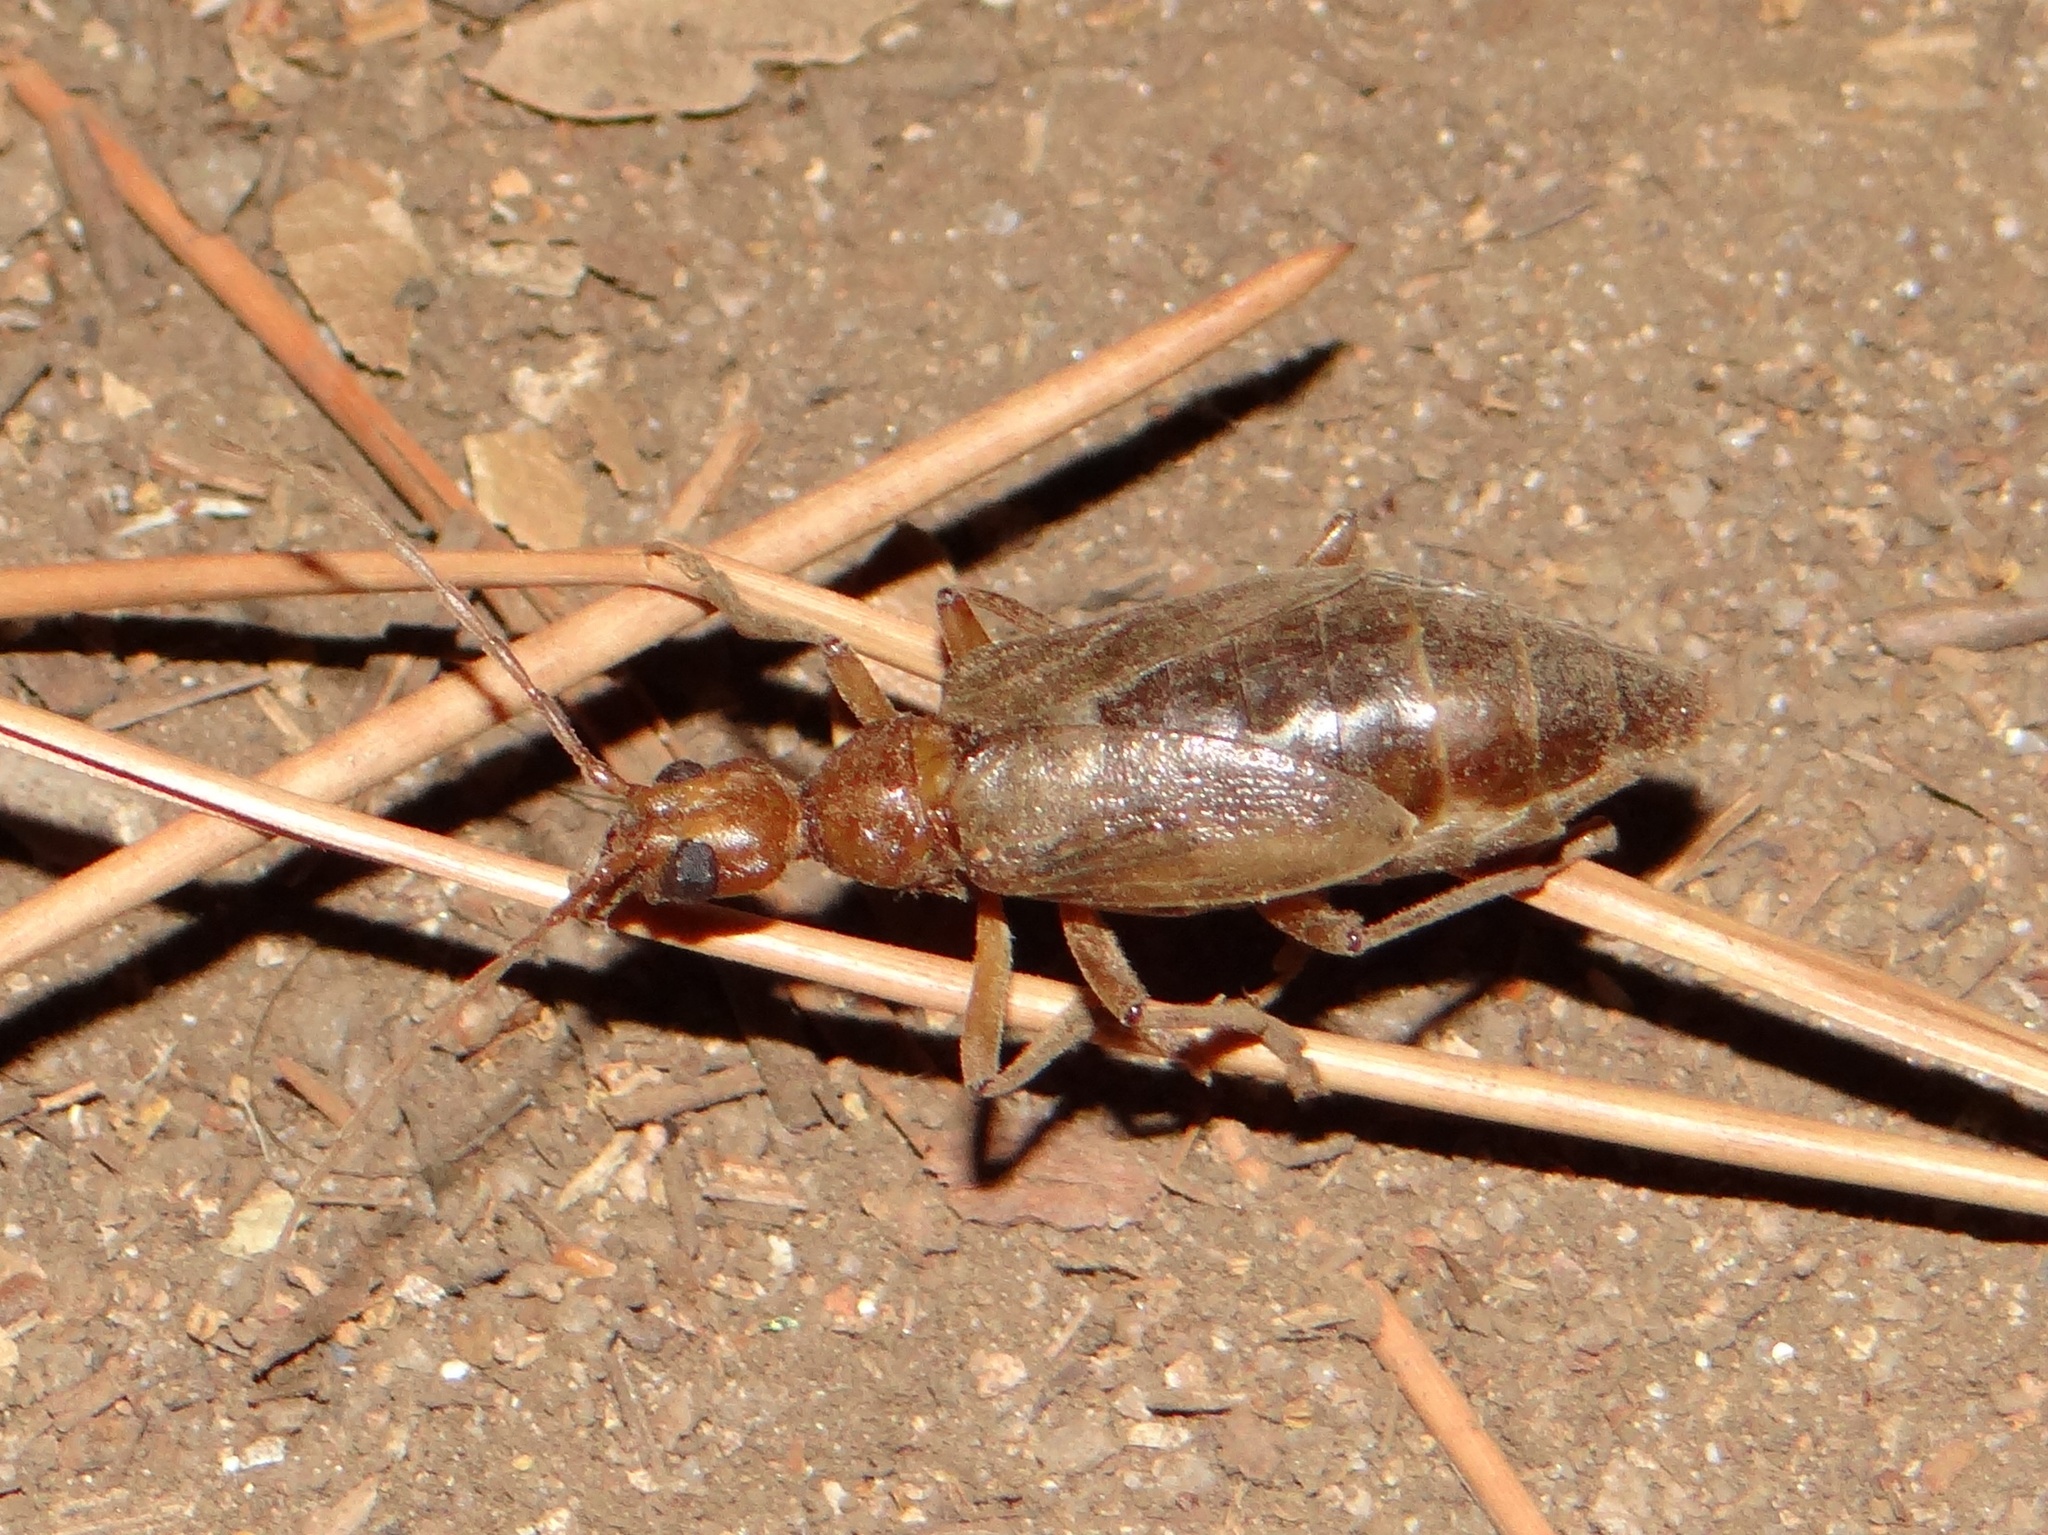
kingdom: Animalia
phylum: Arthropoda
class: Insecta
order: Coleoptera
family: Cerambycidae
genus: Vesperus
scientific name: Vesperus luridus
